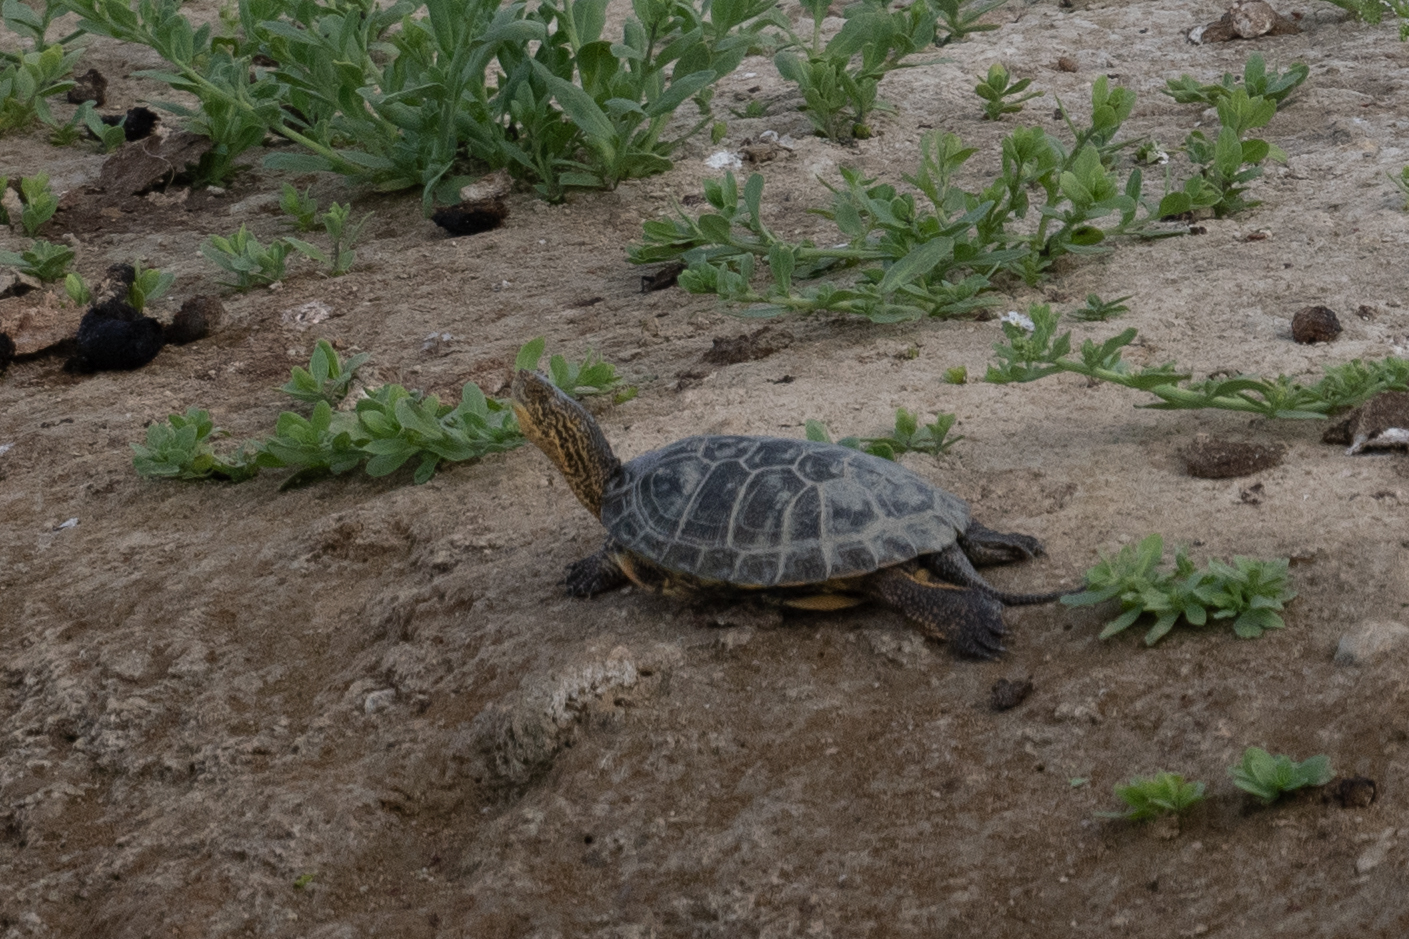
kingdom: Animalia
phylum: Chordata
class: Testudines
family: Emydidae
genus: Actinemys
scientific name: Actinemys marmorata
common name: Western pond turtle
